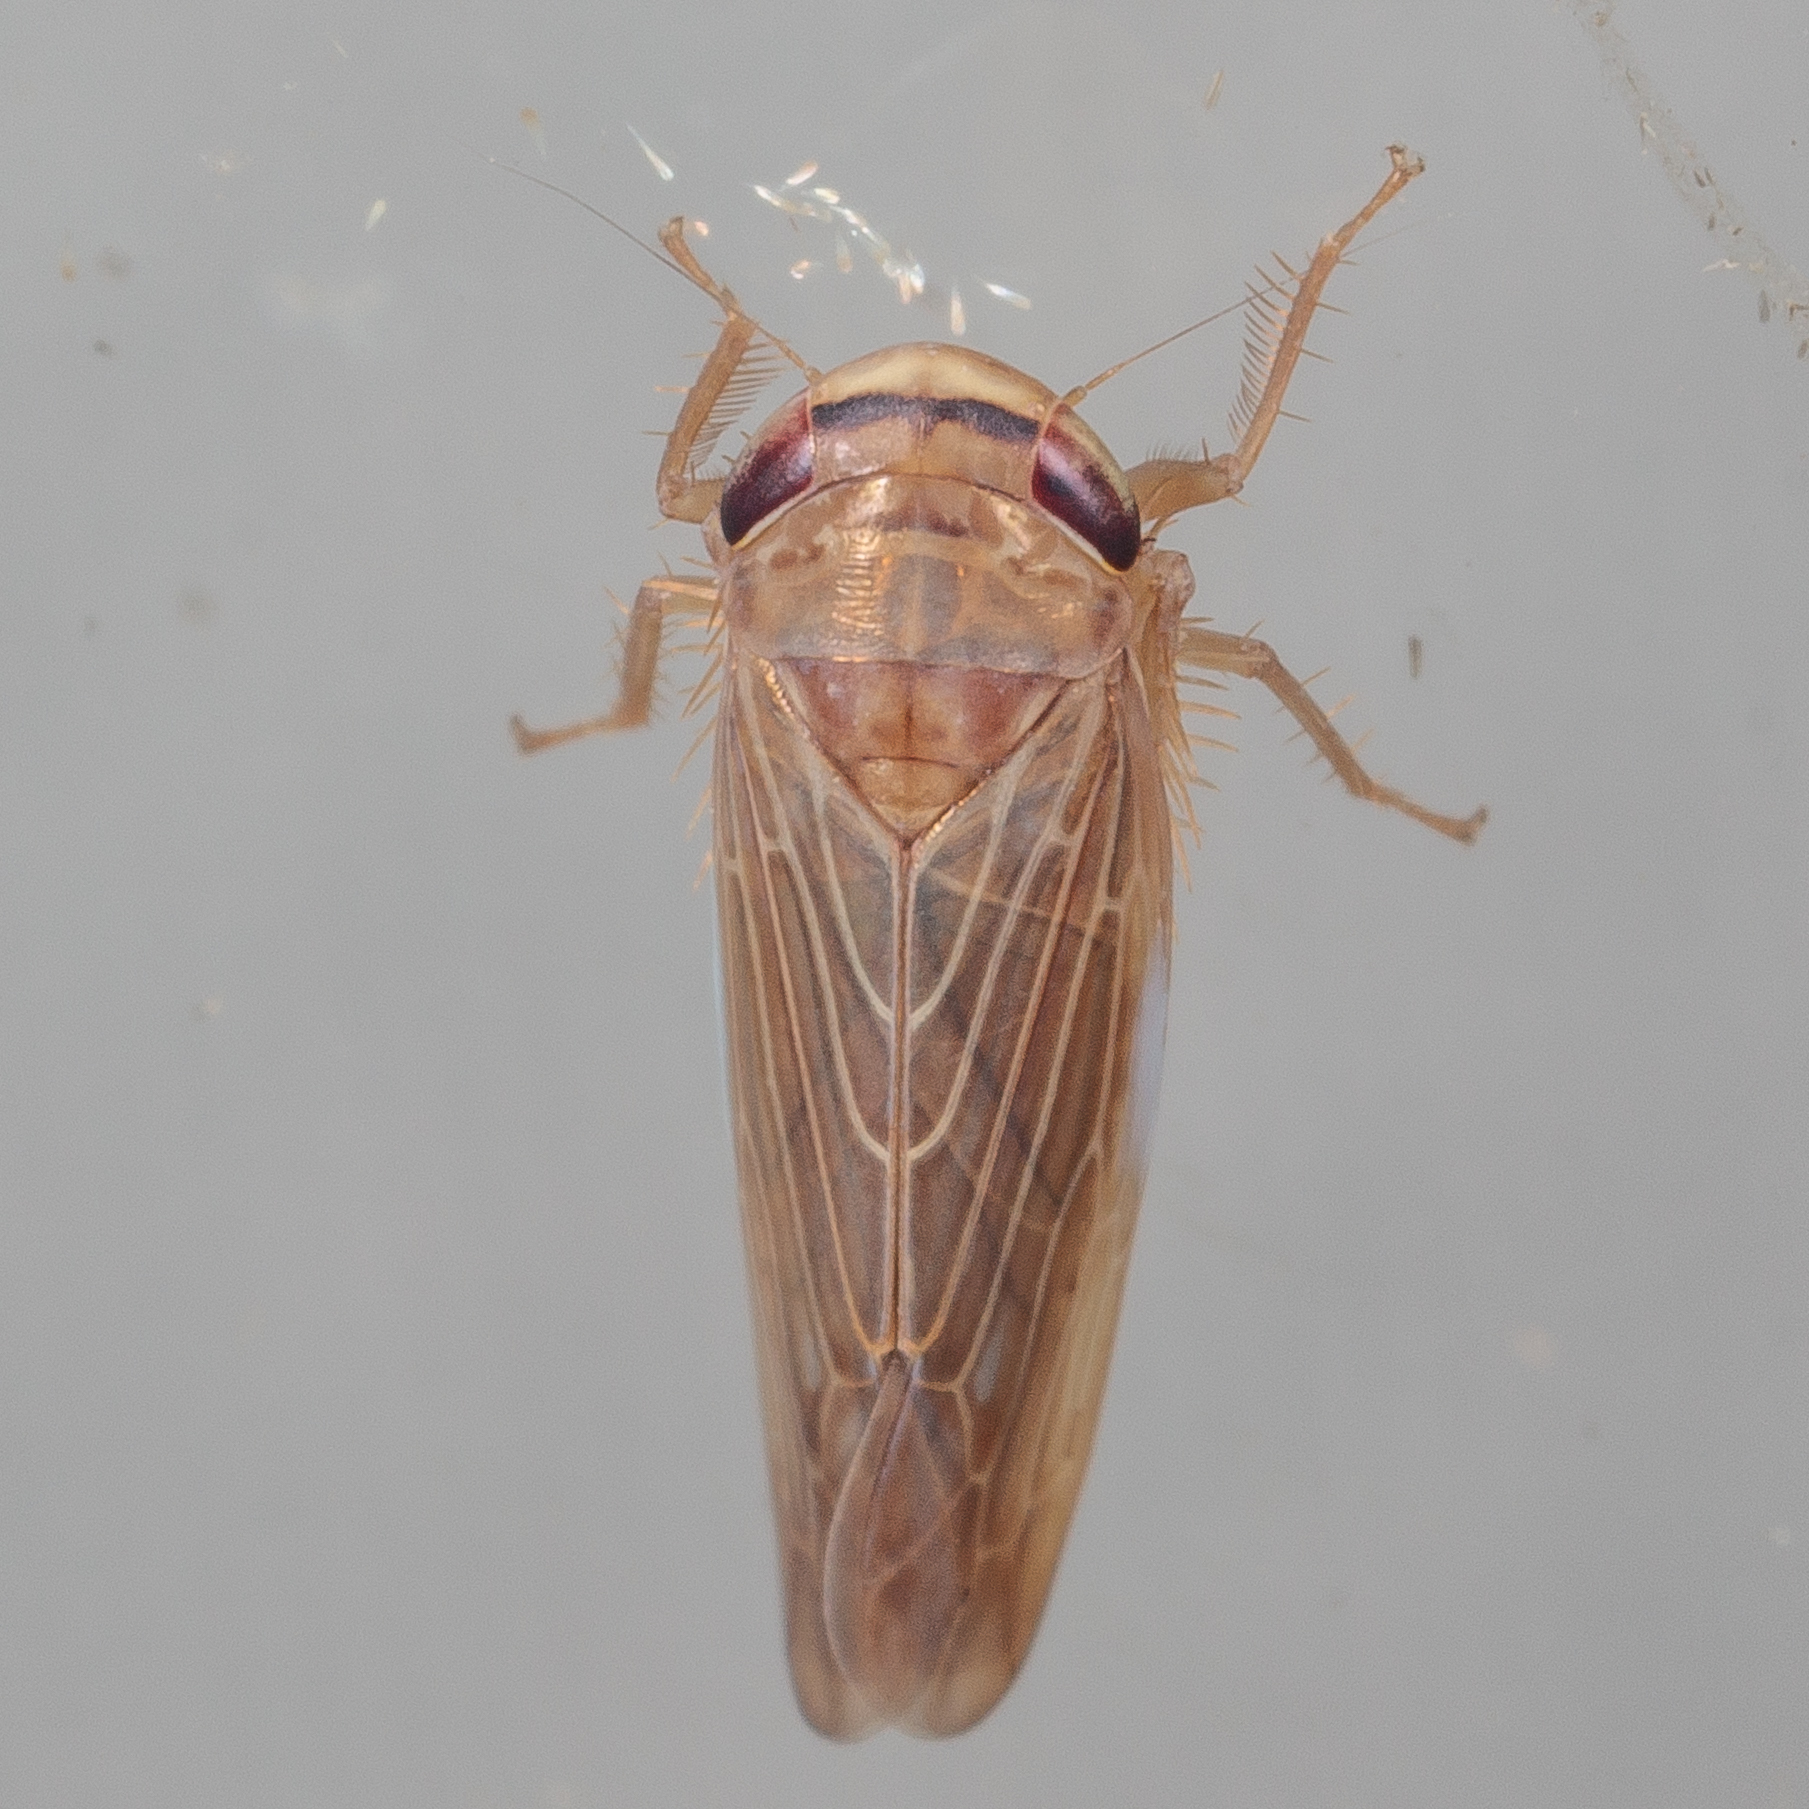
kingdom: Animalia
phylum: Arthropoda
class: Insecta
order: Hemiptera
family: Cicadellidae
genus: Chlorotettix
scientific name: Chlorotettix necopinus
